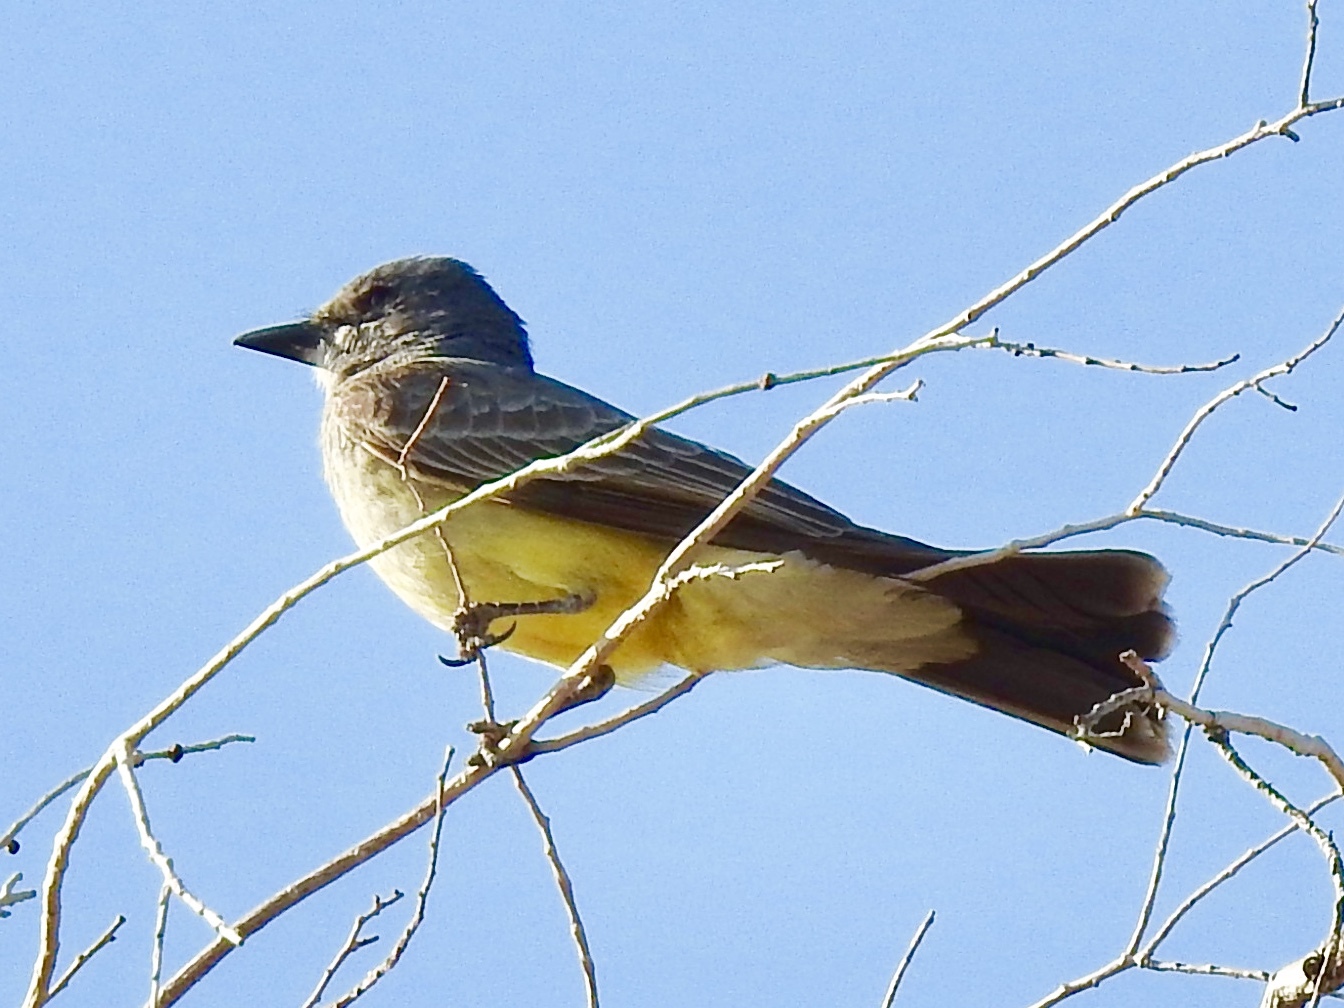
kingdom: Animalia
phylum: Chordata
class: Aves
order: Passeriformes
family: Tyrannidae
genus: Tyrannus
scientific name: Tyrannus verticalis
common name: Western kingbird
